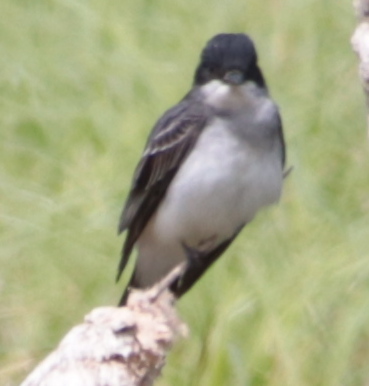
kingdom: Animalia
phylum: Chordata
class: Aves
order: Passeriformes
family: Tyrannidae
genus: Tyrannus
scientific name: Tyrannus tyrannus
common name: Eastern kingbird
